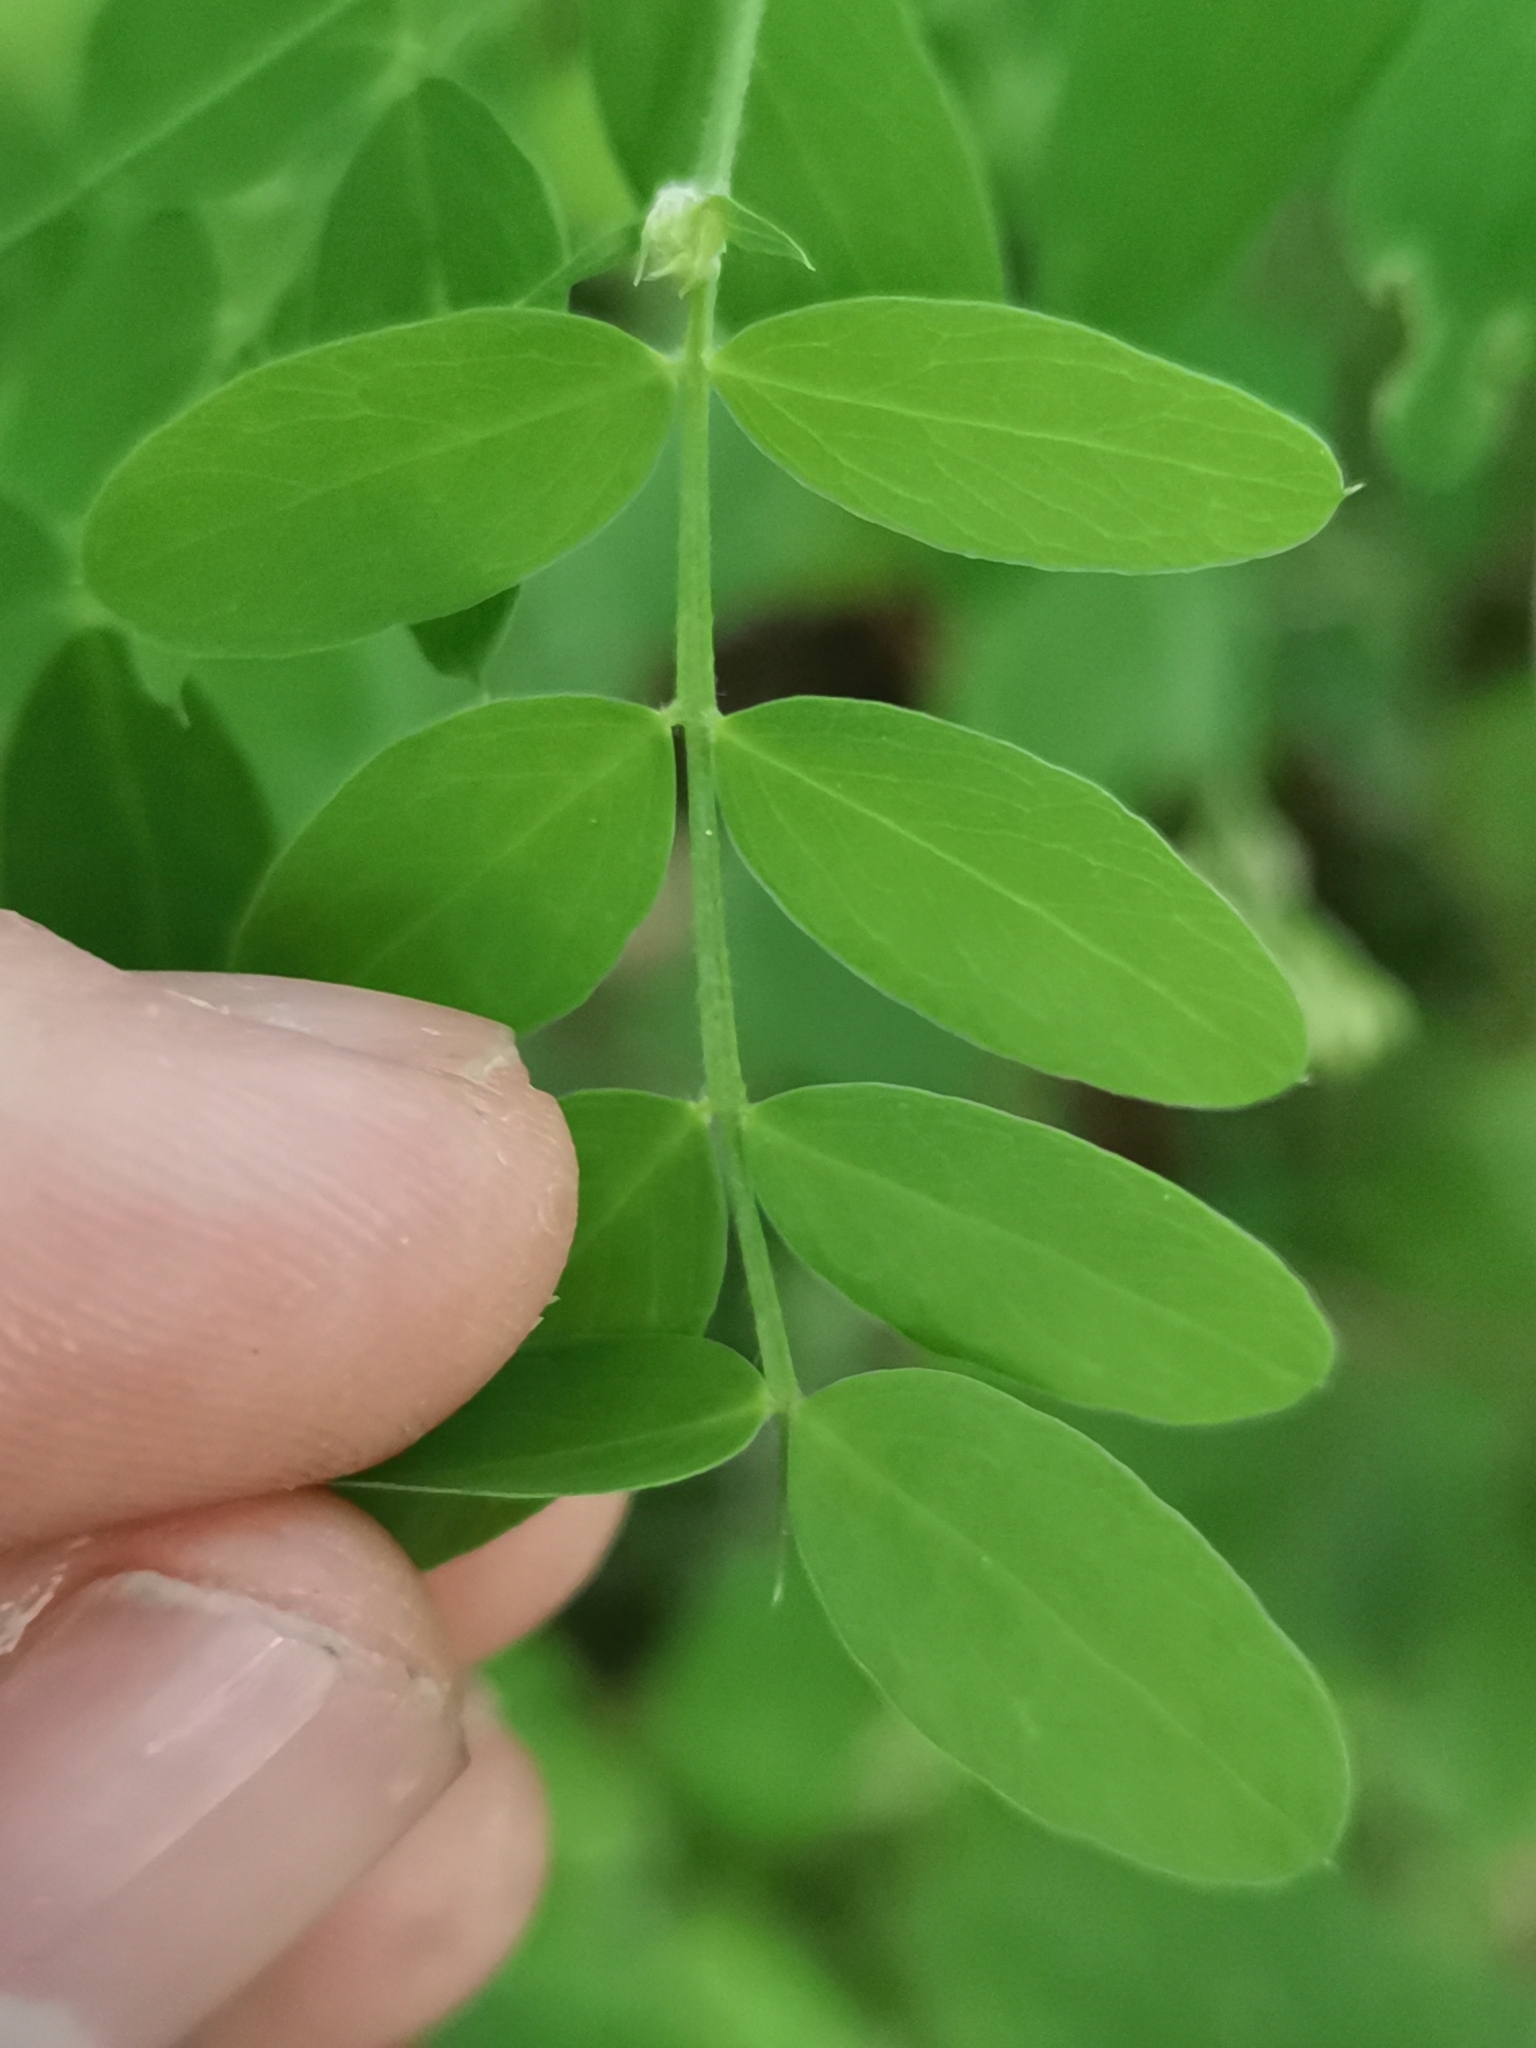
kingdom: Plantae
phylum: Tracheophyta
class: Magnoliopsida
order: Fabales
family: Fabaceae
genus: Lathyrus
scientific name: Lathyrus niger
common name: Black pea
